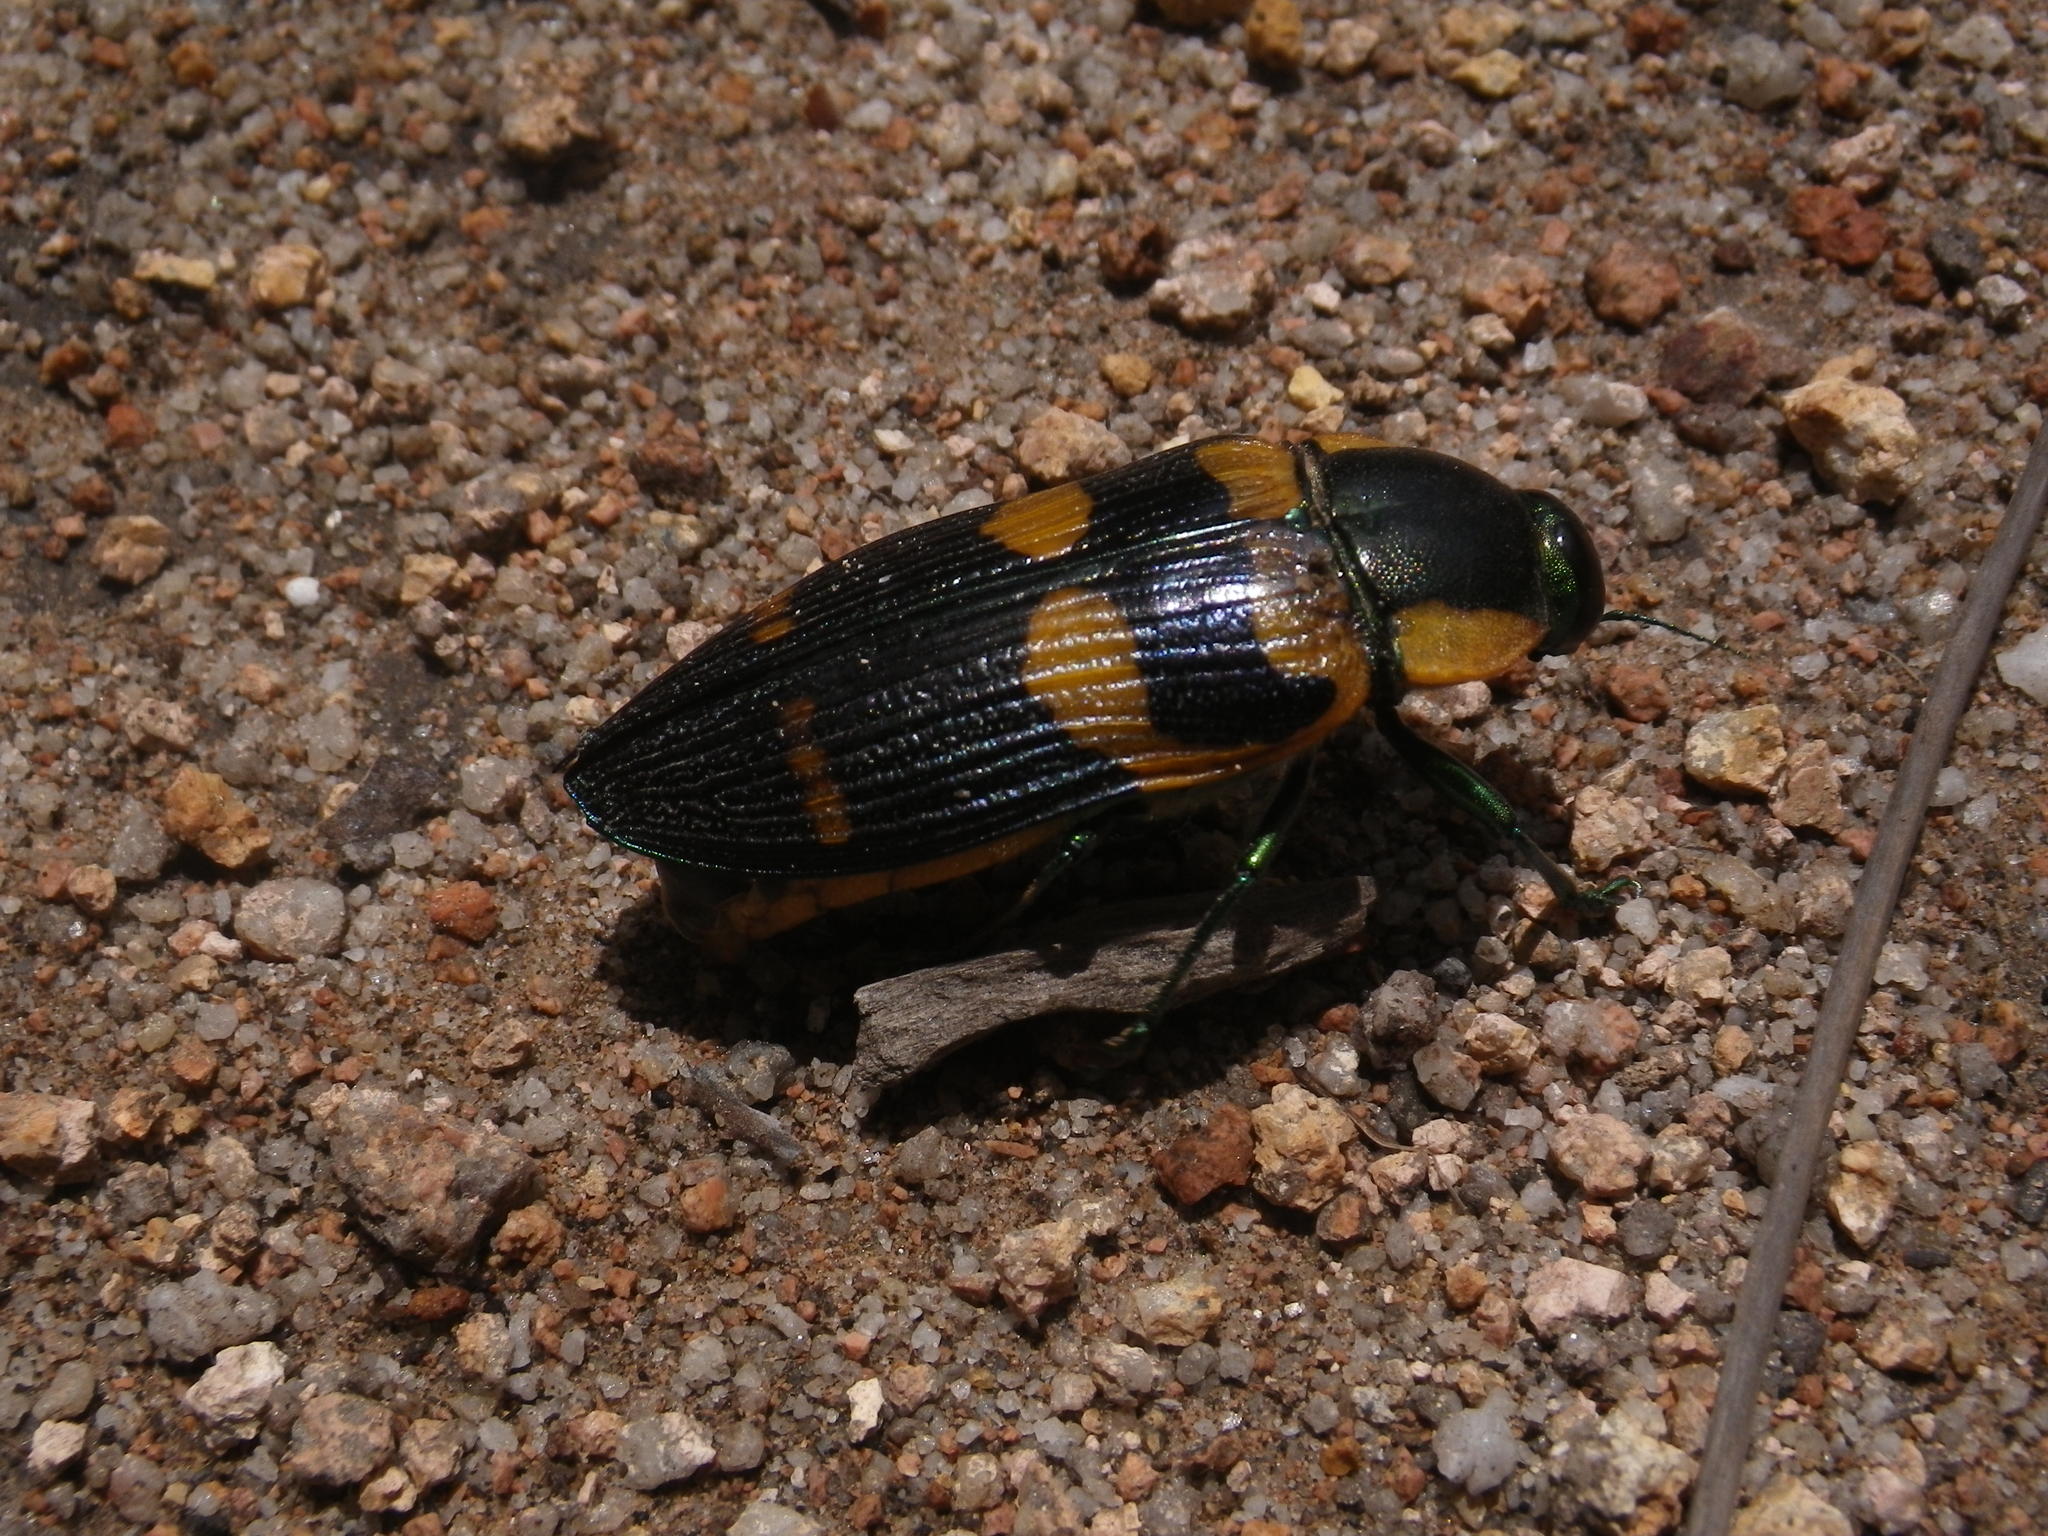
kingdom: Animalia
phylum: Arthropoda
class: Insecta
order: Coleoptera
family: Buprestidae
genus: Temognatha
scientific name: Temognatha regia
